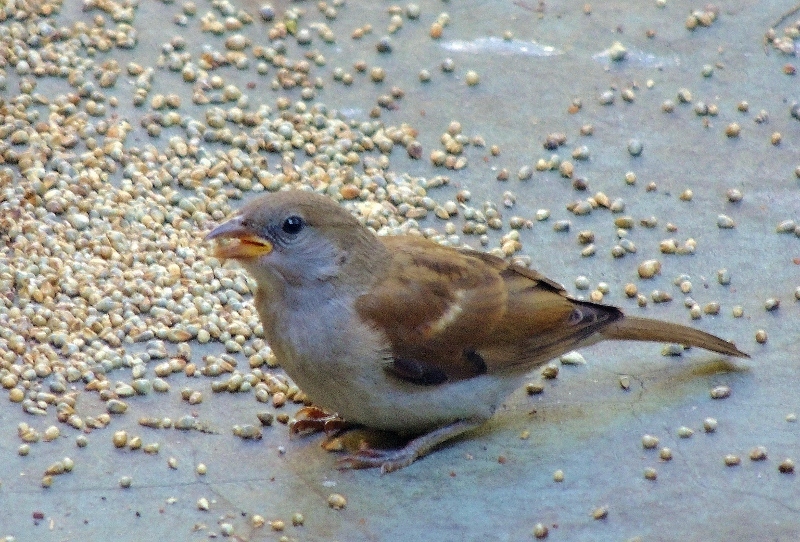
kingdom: Animalia
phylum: Chordata
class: Aves
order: Passeriformes
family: Passeridae
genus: Passer
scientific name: Passer diffusus
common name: Southern grey-headed sparrow
